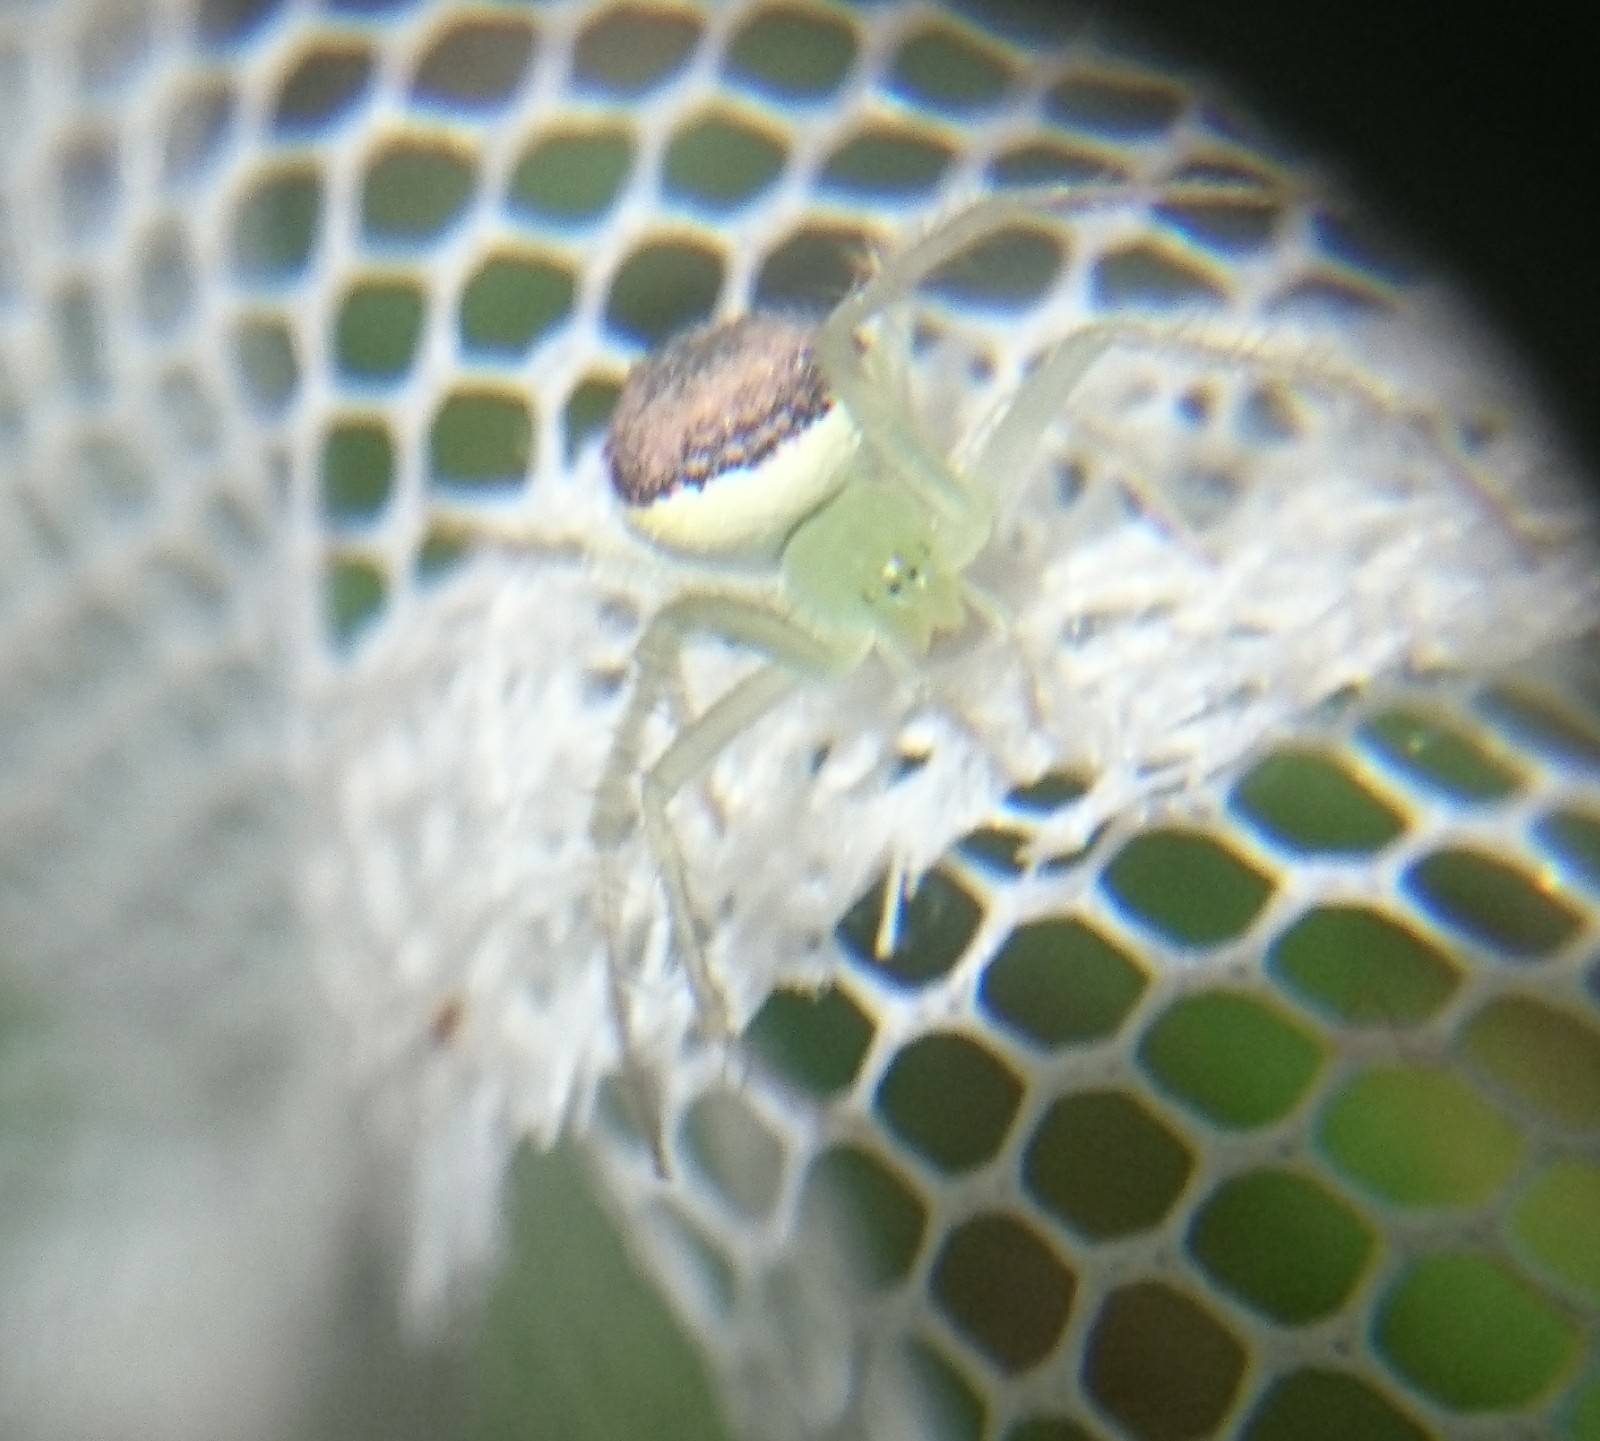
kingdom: Animalia
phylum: Arthropoda
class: Arachnida
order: Araneae
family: Araneidae
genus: Araneus
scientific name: Araneus niveus
